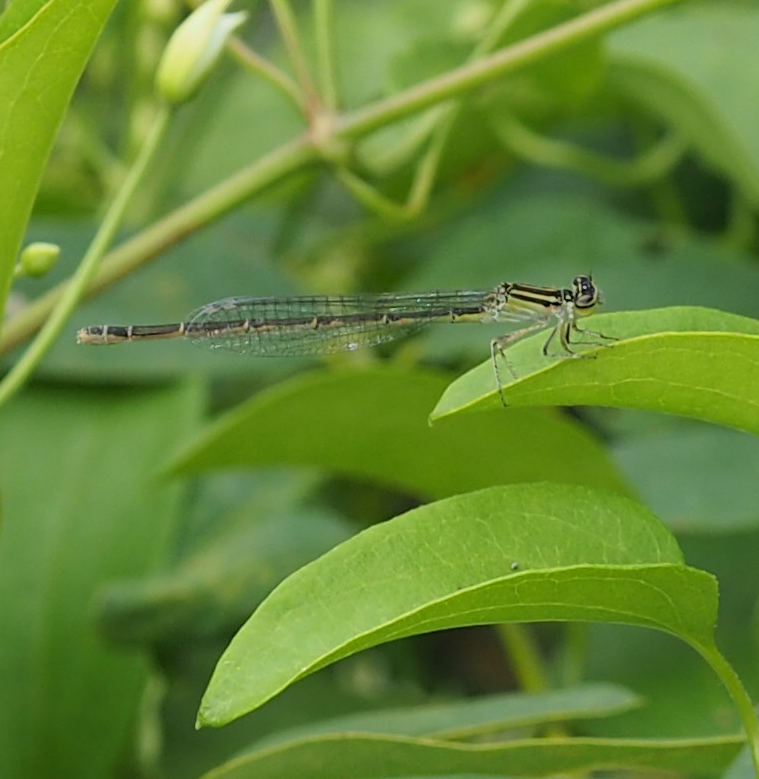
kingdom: Animalia
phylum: Arthropoda
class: Insecta
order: Odonata
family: Coenagrionidae
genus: Enallagma
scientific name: Enallagma durum
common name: Big bluet
